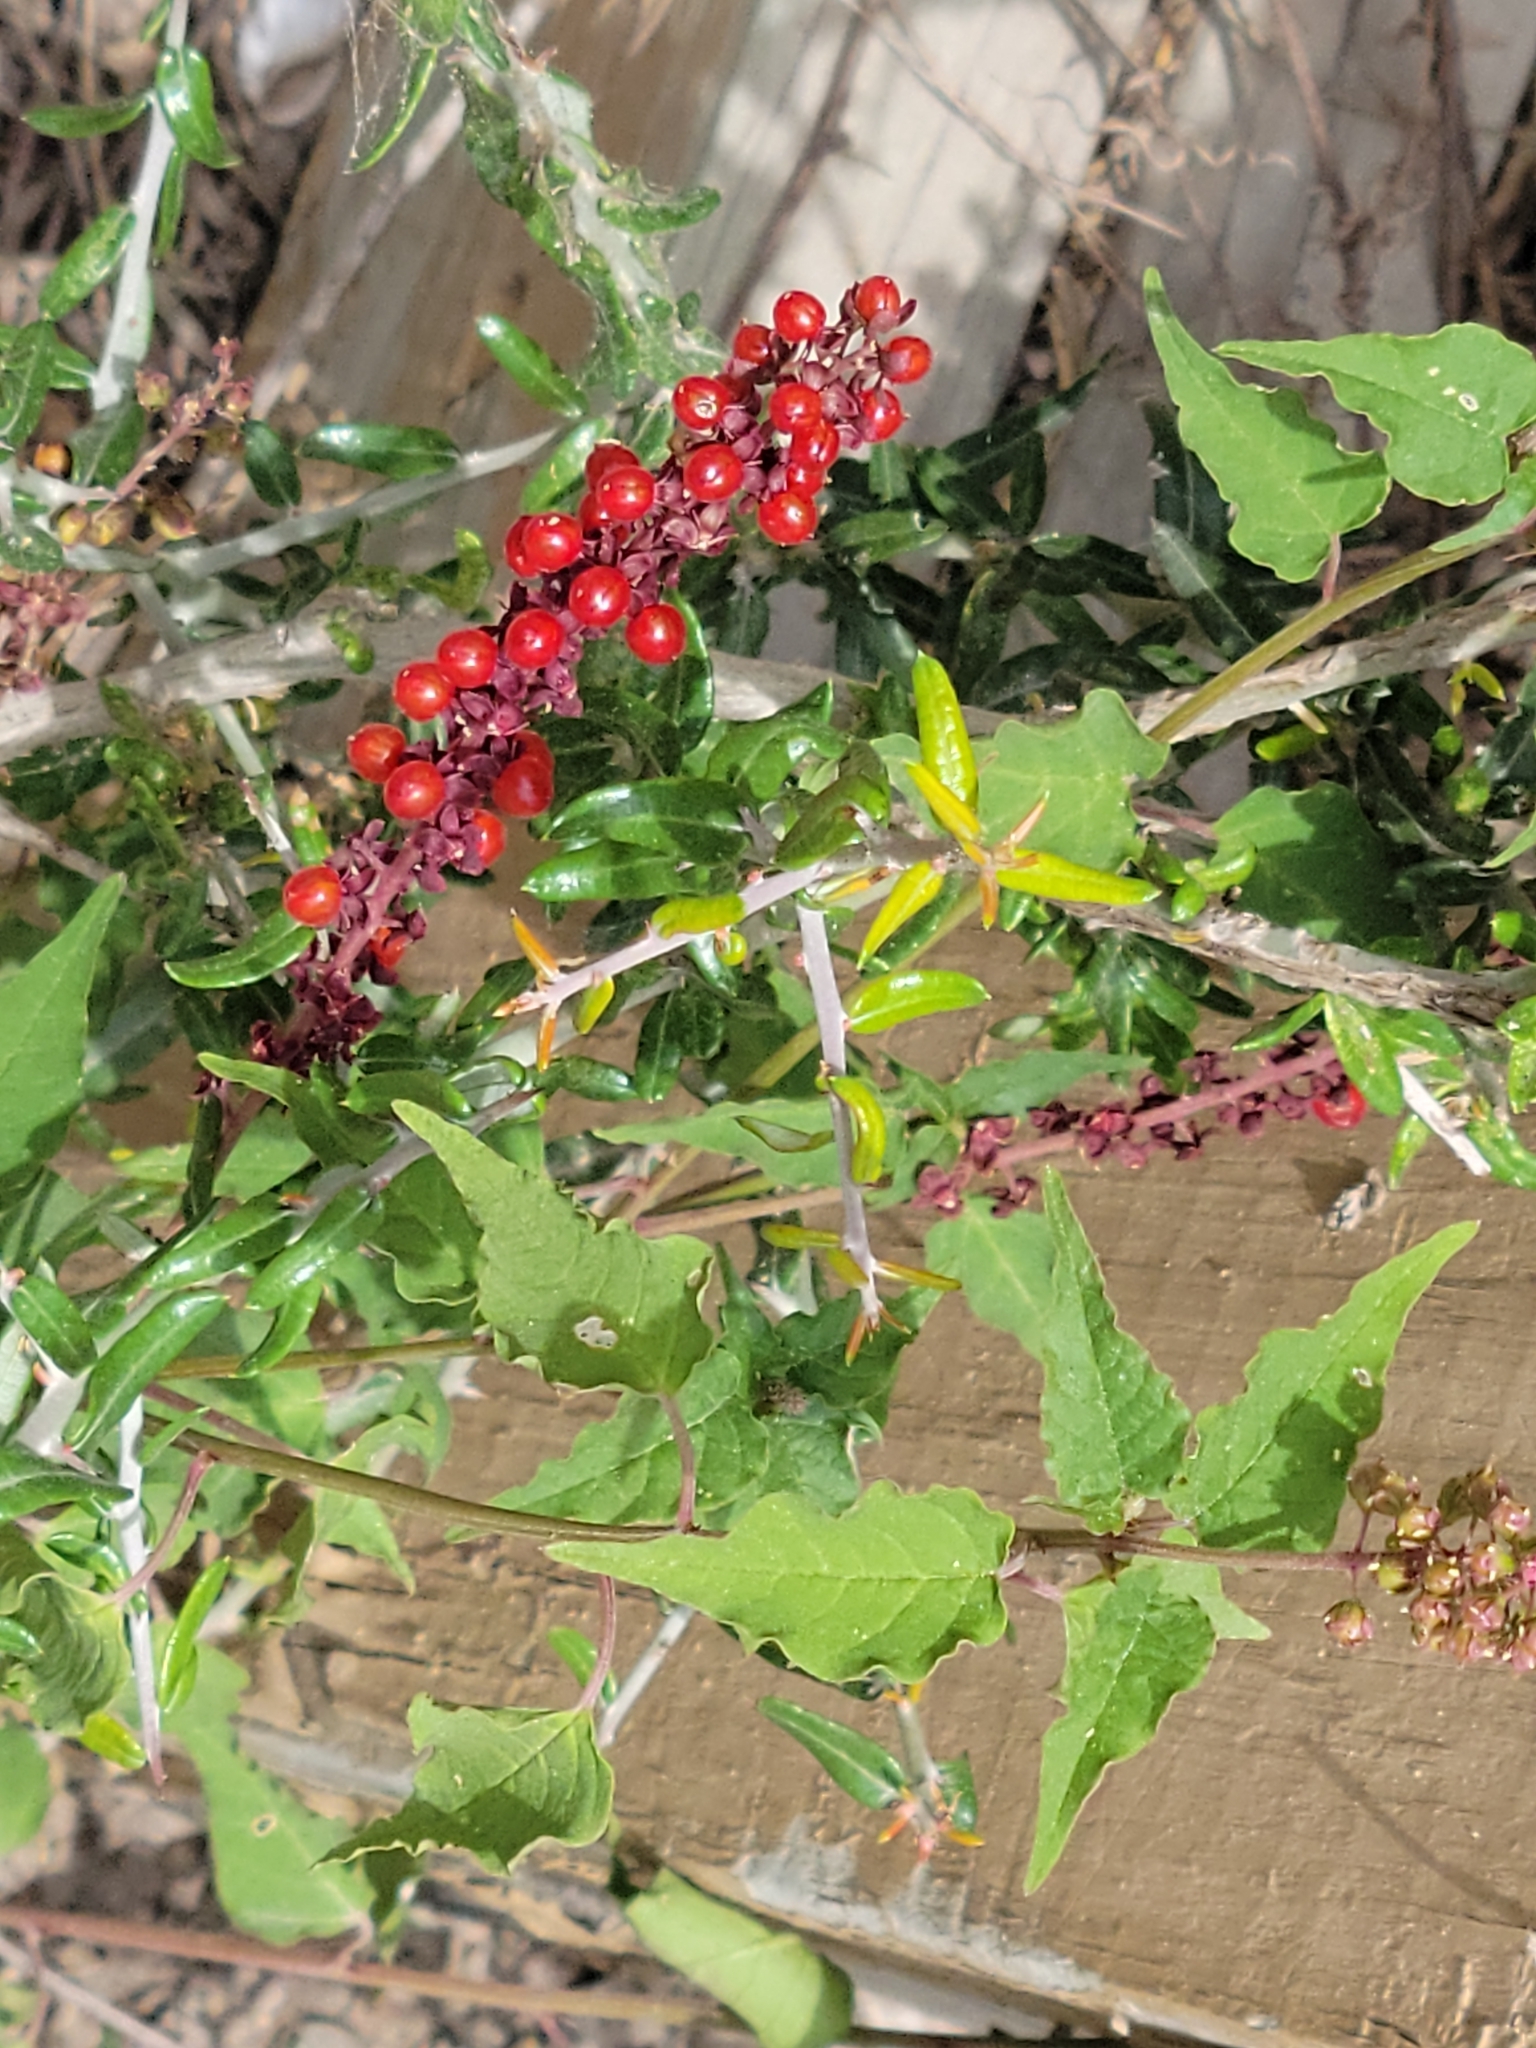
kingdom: Plantae
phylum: Tracheophyta
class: Magnoliopsida
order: Caryophyllales
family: Phytolaccaceae
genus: Rivina
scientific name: Rivina humilis
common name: Rougeplant
